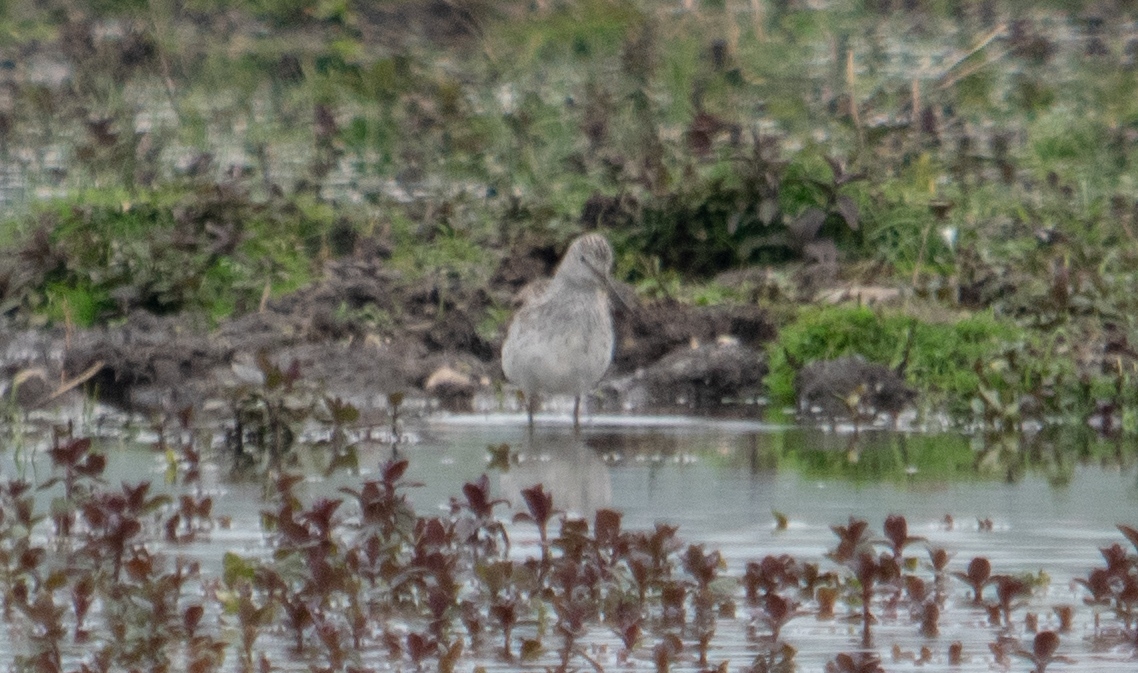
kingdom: Animalia
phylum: Chordata
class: Aves
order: Charadriiformes
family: Scolopacidae
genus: Tringa
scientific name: Tringa nebularia
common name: Common greenshank
